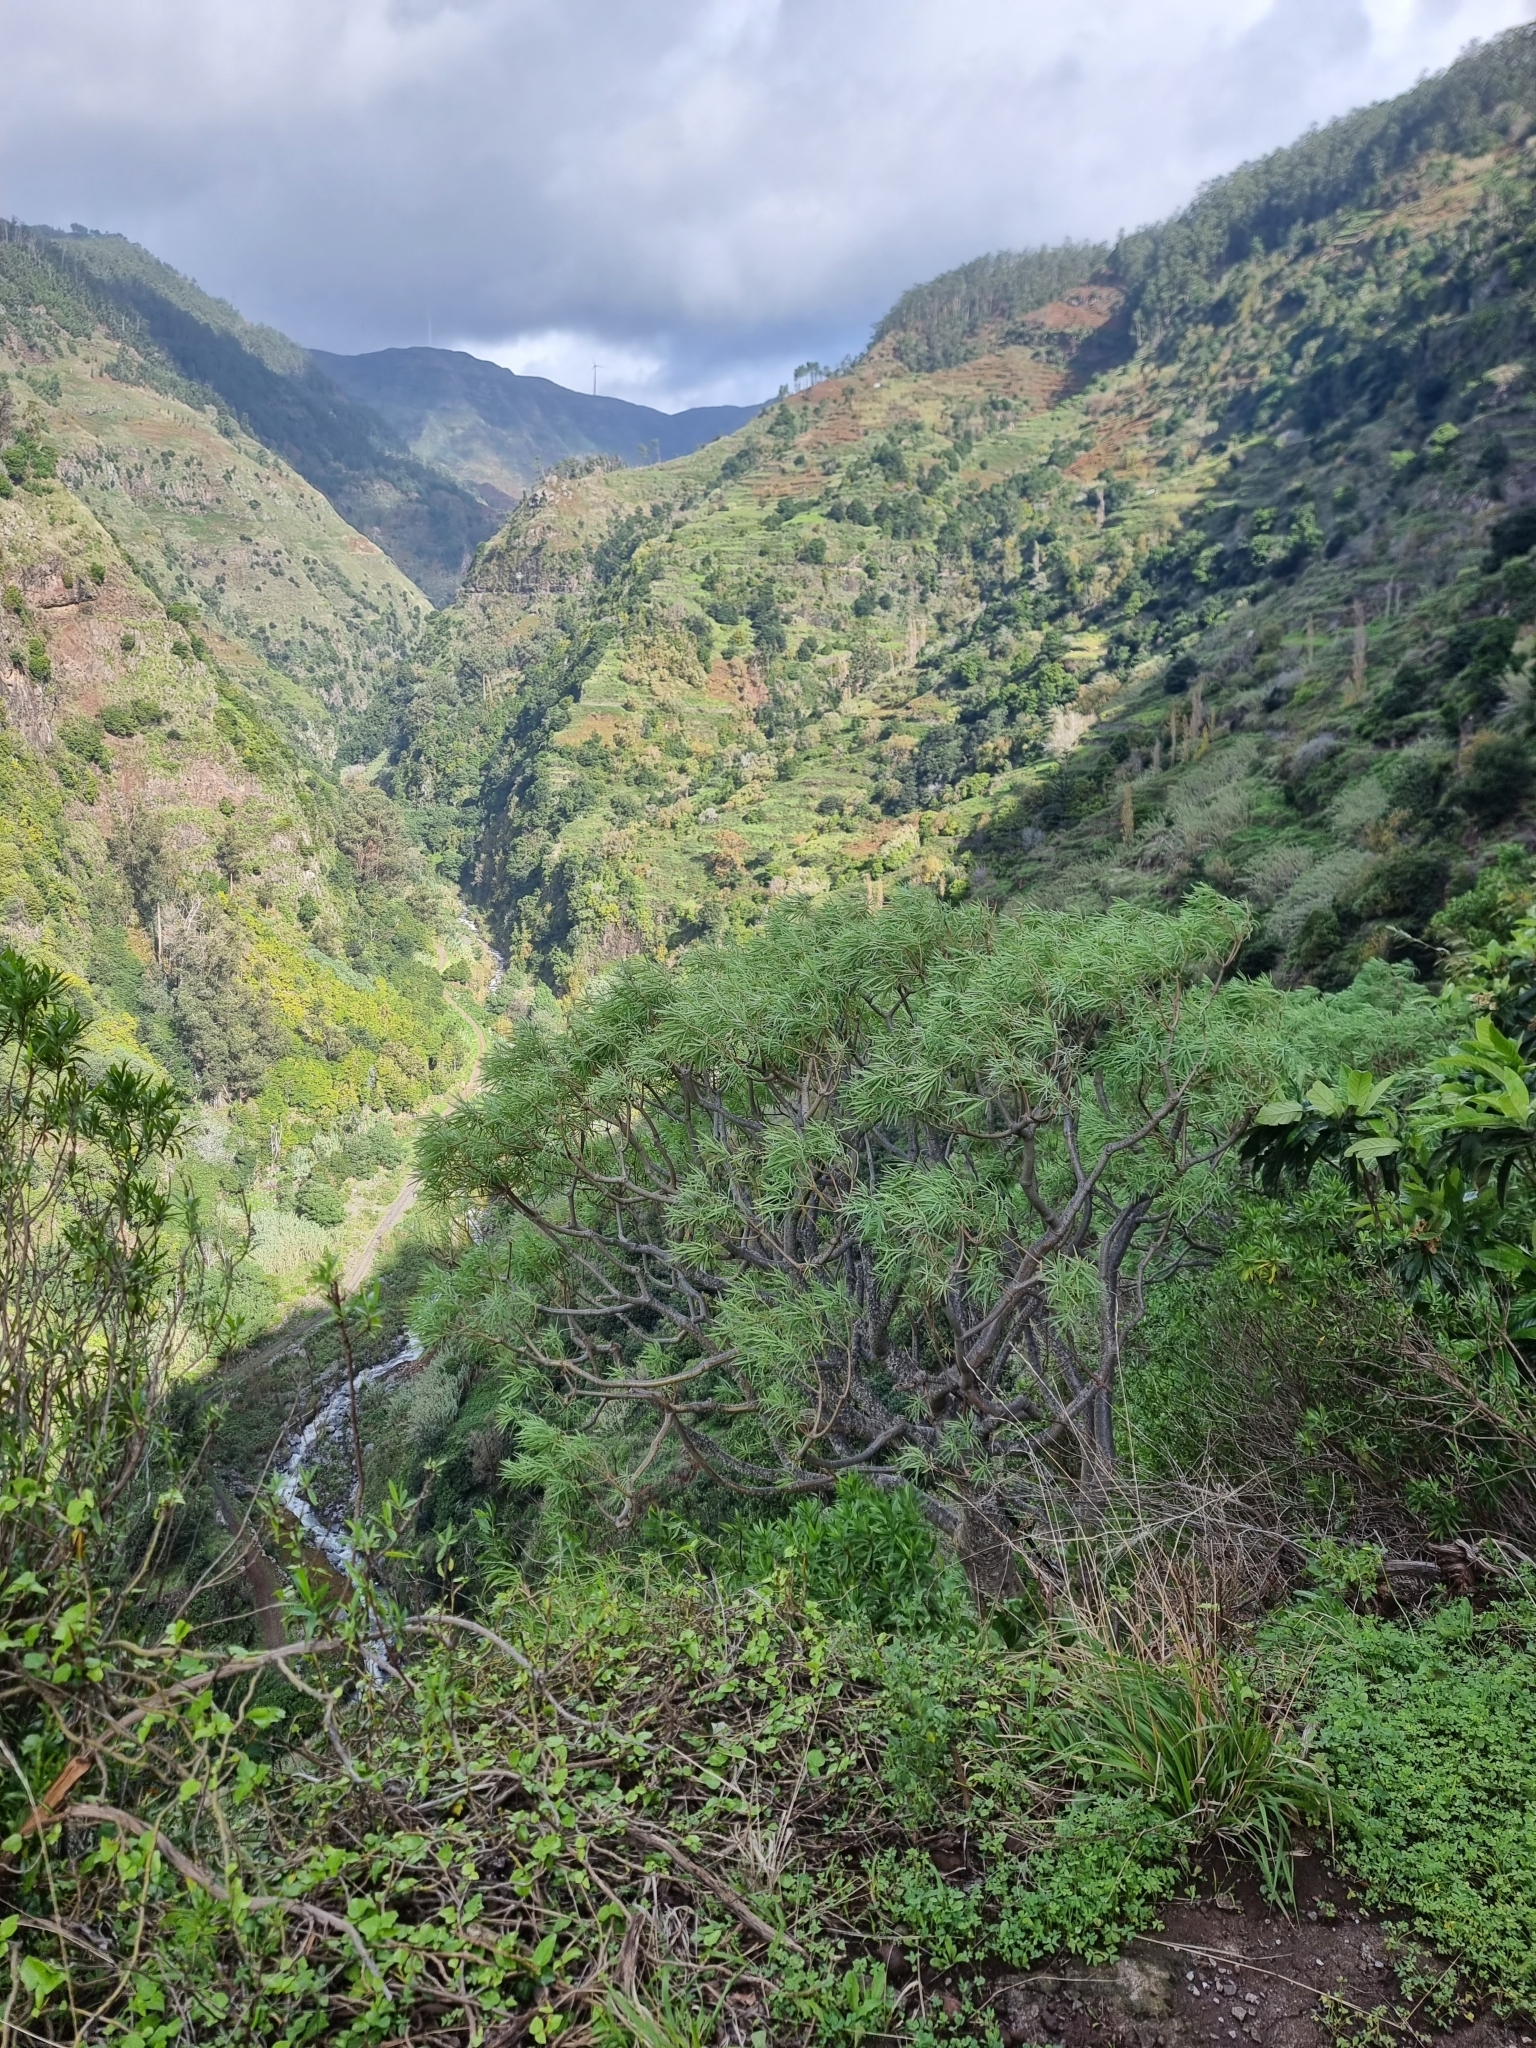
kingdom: Plantae
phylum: Tracheophyta
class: Magnoliopsida
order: Malpighiales
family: Euphorbiaceae
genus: Euphorbia
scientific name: Euphorbia piscatoria
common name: Fish-stunning spurge
